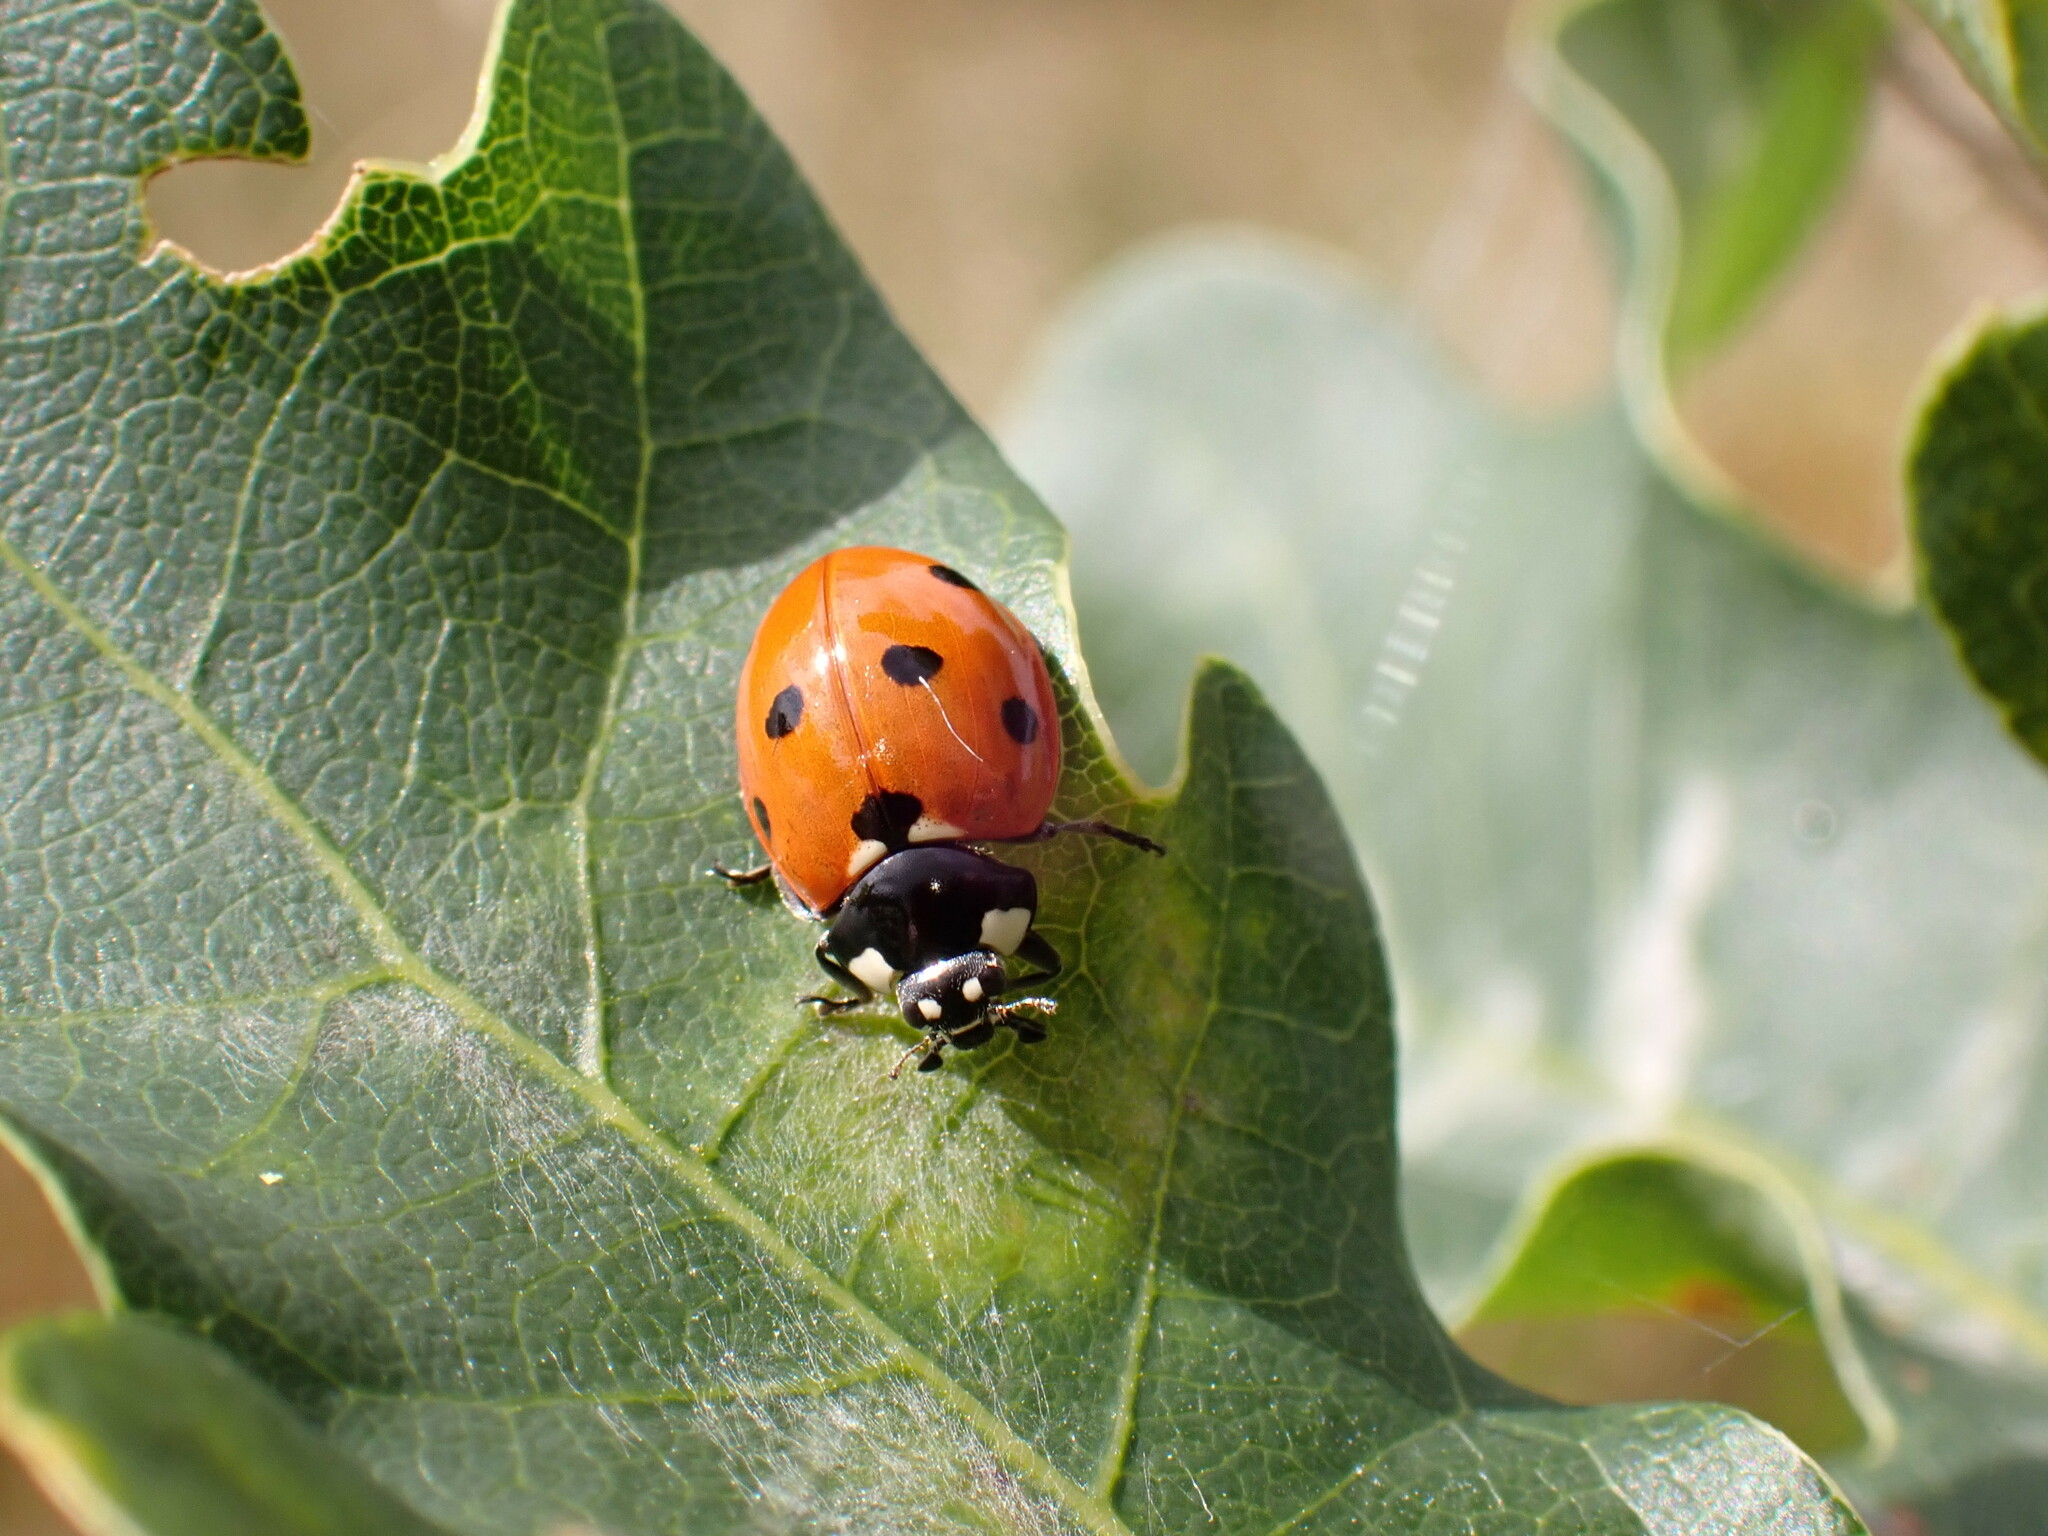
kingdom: Animalia
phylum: Arthropoda
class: Insecta
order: Coleoptera
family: Coccinellidae
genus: Coccinella
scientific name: Coccinella septempunctata
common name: Sevenspotted lady beetle
